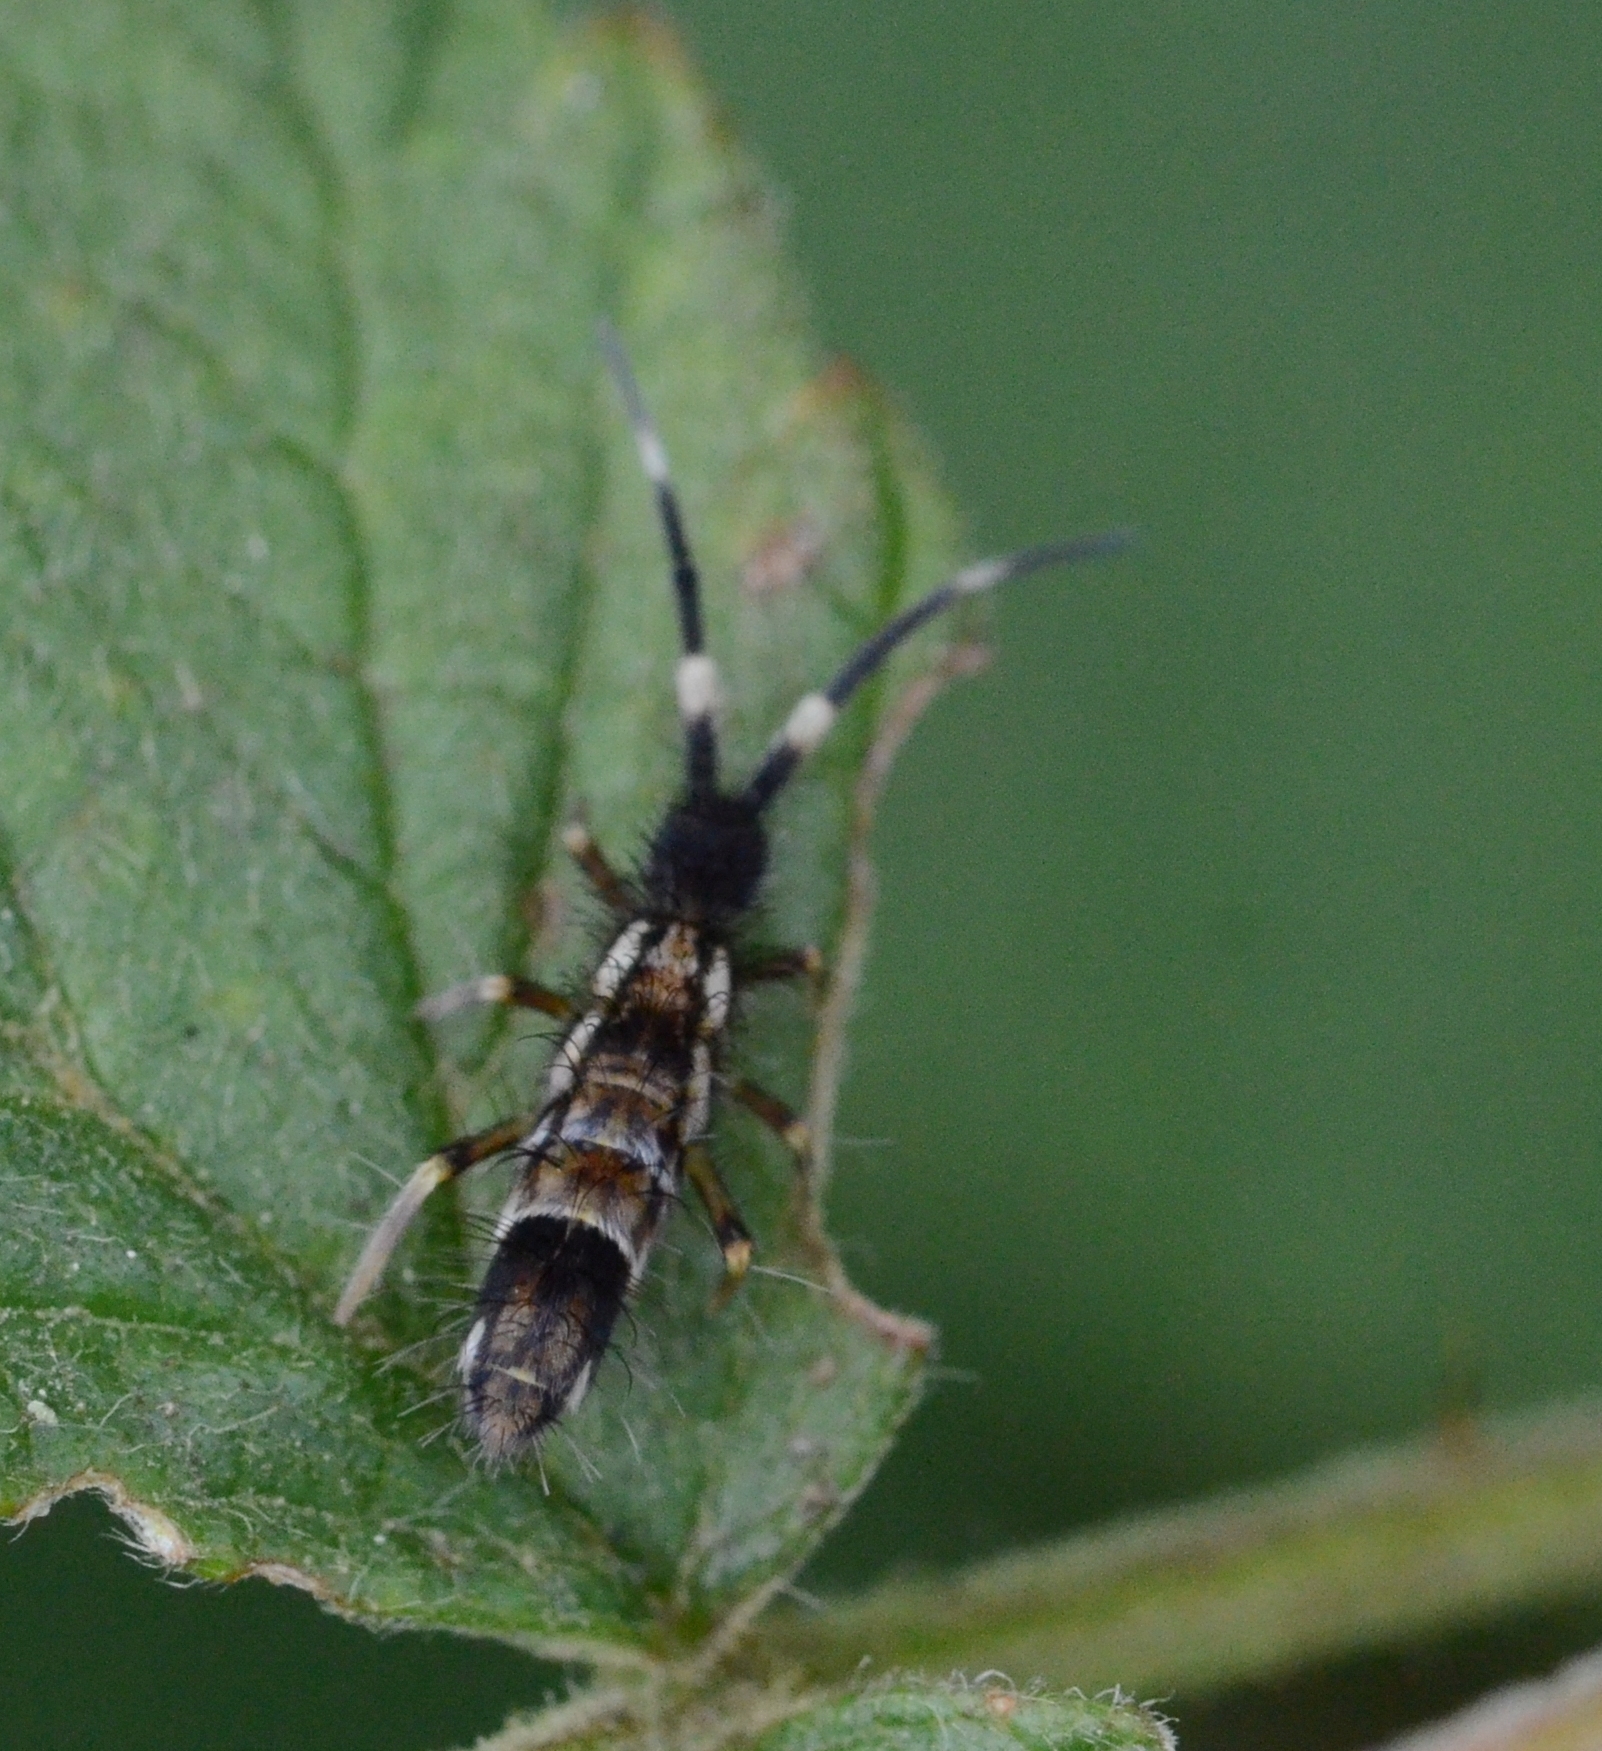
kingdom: Animalia
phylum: Arthropoda
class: Collembola
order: Entomobryomorpha
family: Entomobryidae
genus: Entomobrya
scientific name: Entomobrya nivalis
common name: Cosmopolitan springtail
